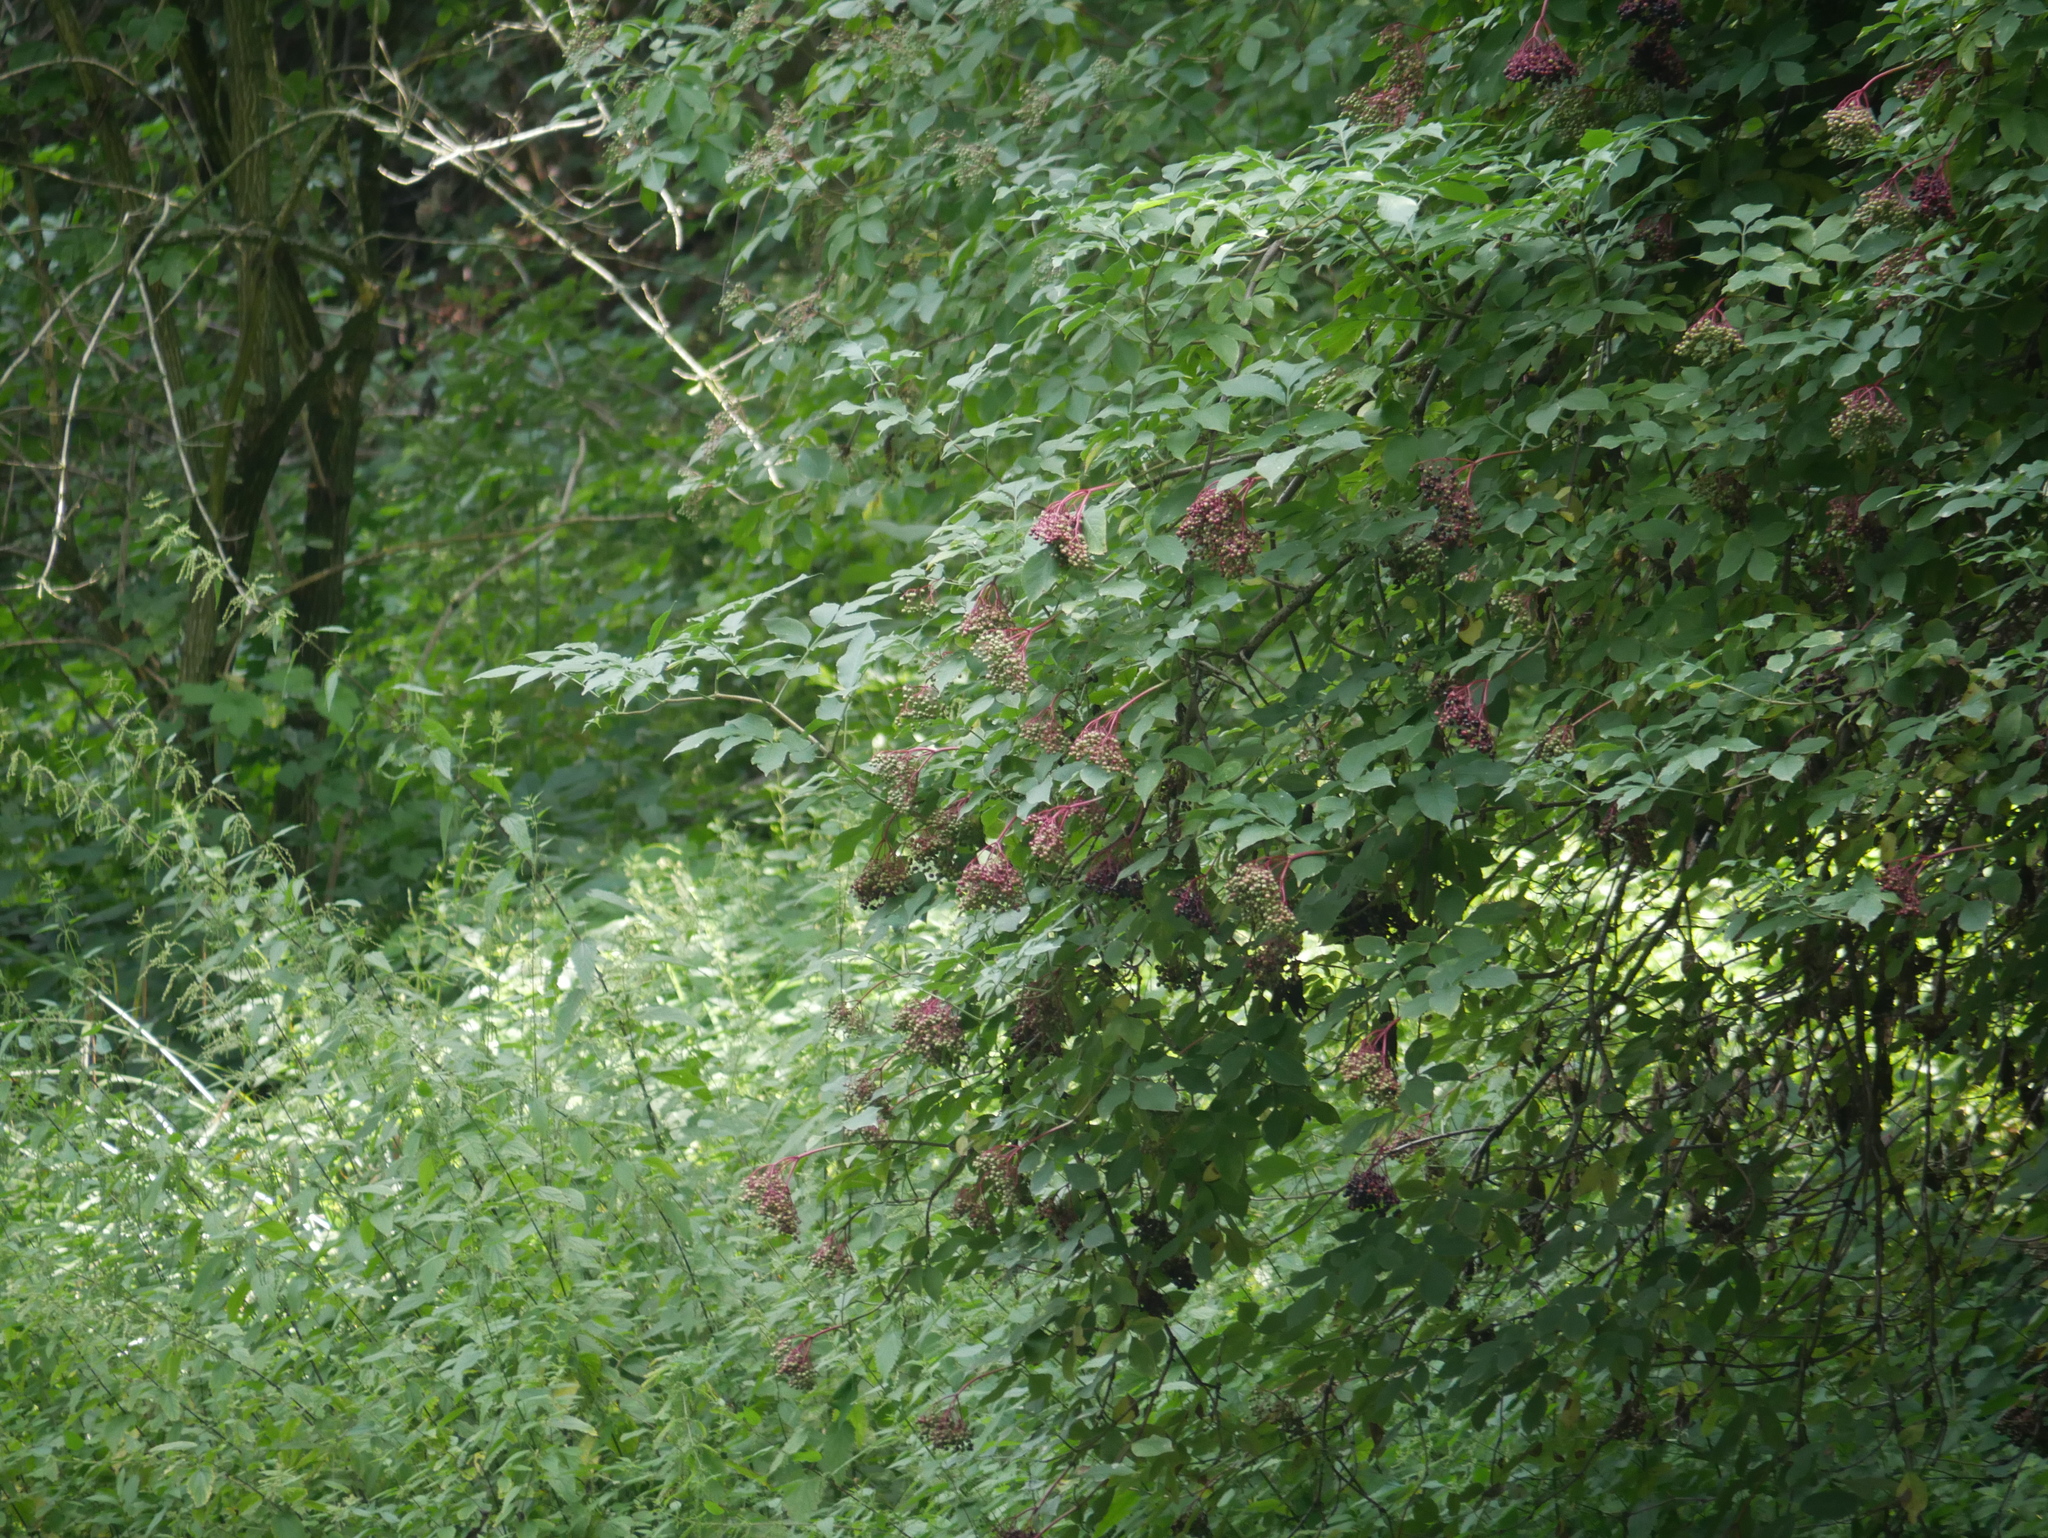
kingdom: Plantae
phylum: Tracheophyta
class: Magnoliopsida
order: Dipsacales
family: Viburnaceae
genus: Sambucus
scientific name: Sambucus nigra
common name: Elder
